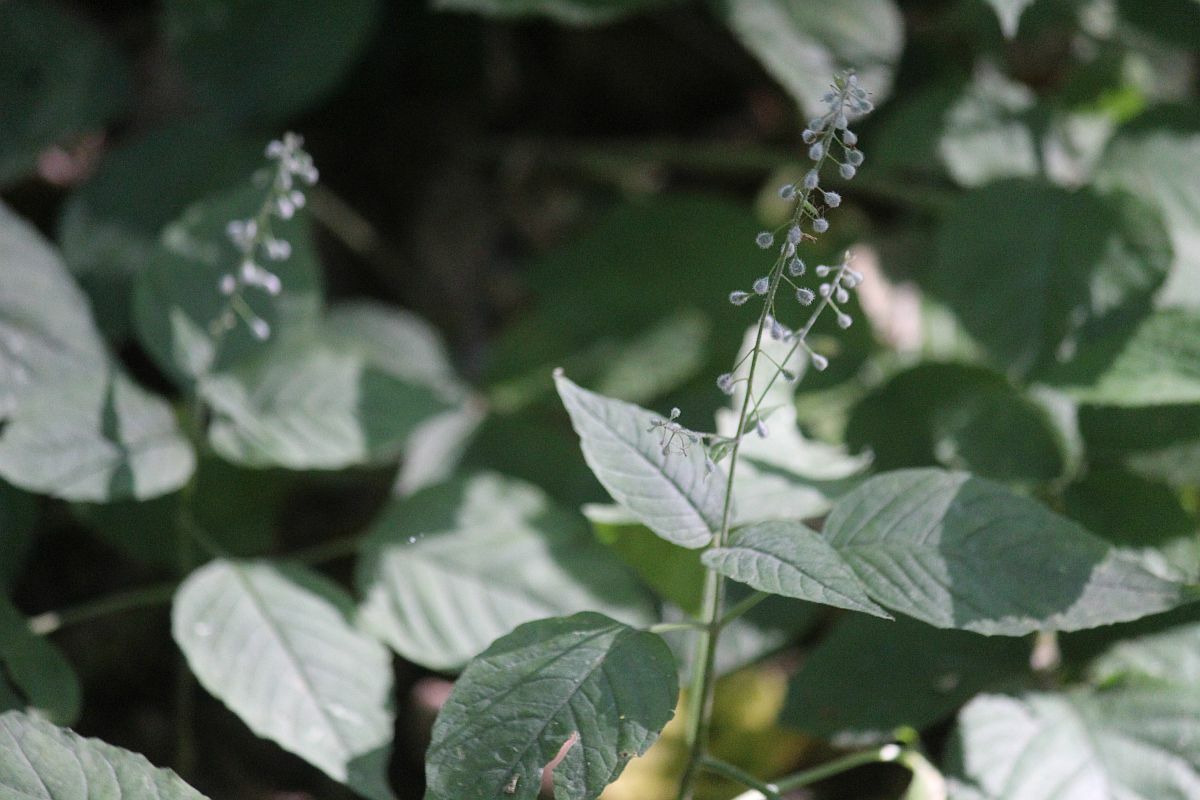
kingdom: Plantae
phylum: Tracheophyta
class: Magnoliopsida
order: Myrtales
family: Onagraceae
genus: Circaea
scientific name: Circaea lutetiana
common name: Enchanter's-nightshade
